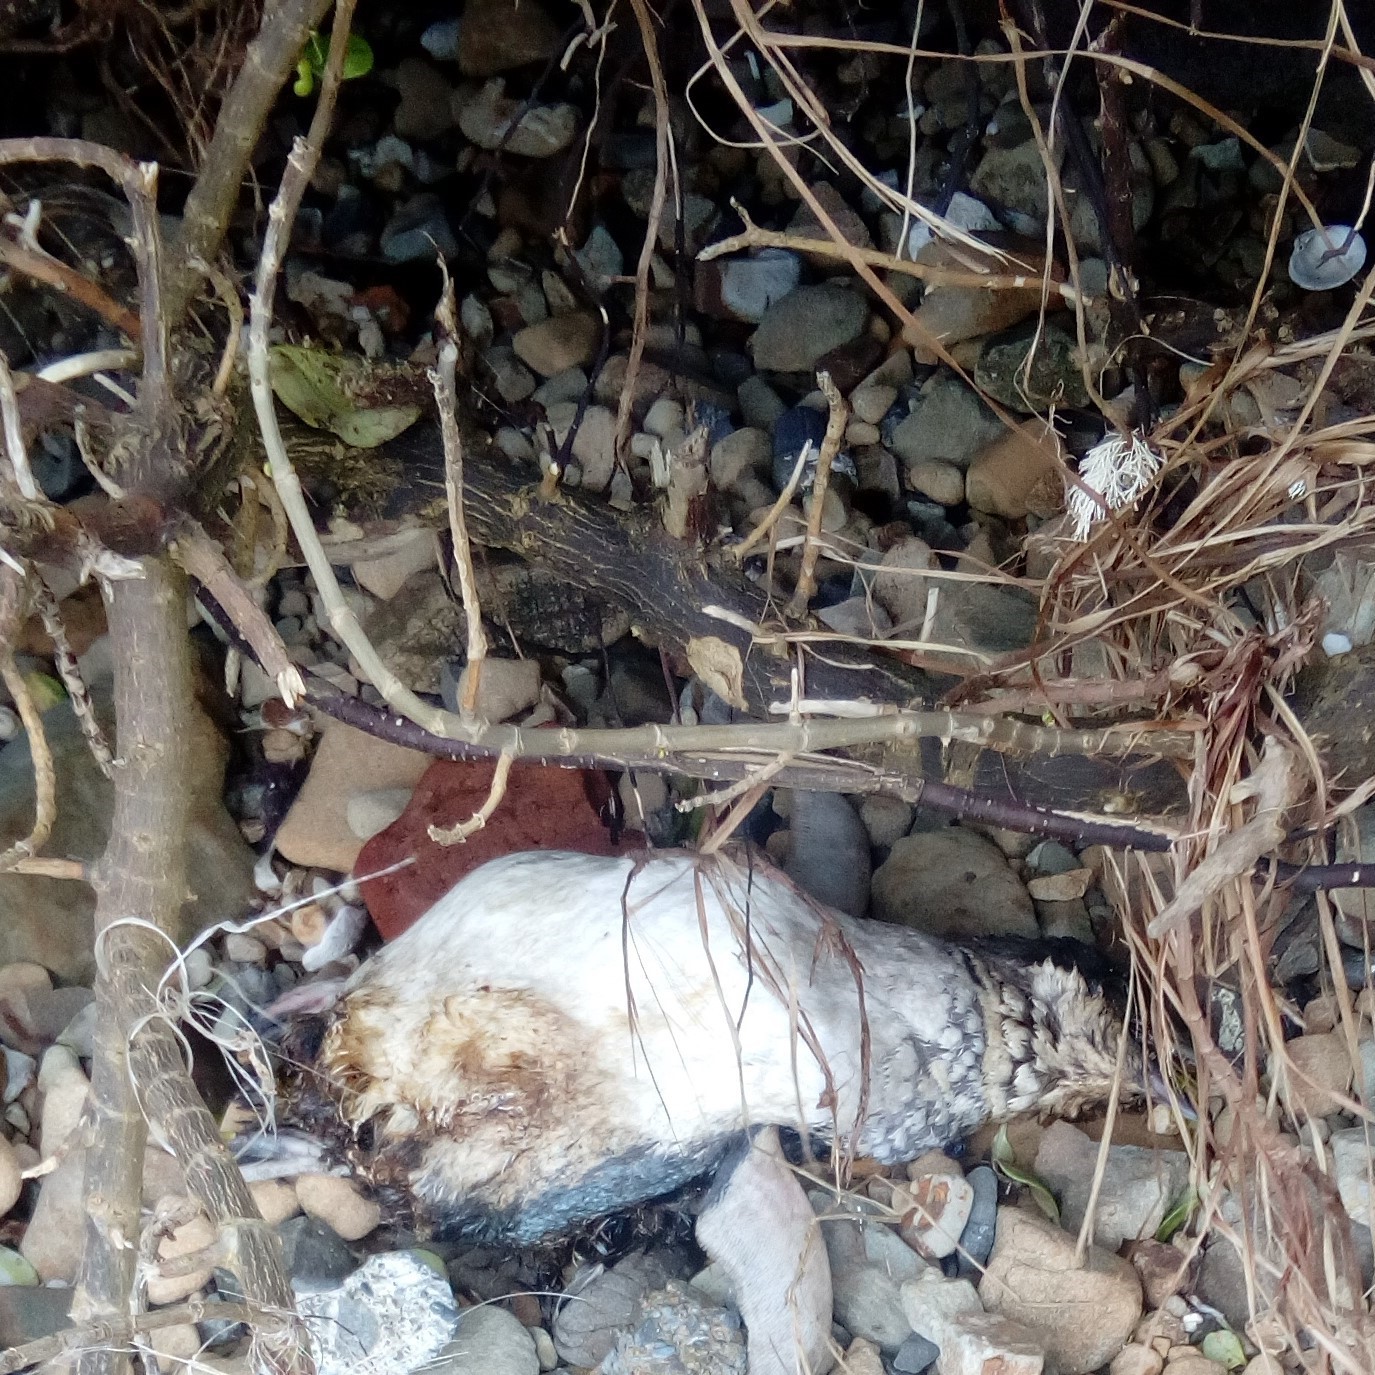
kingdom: Animalia
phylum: Chordata
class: Aves
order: Sphenisciformes
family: Spheniscidae
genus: Eudyptula
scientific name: Eudyptula minor
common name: Little penguin
